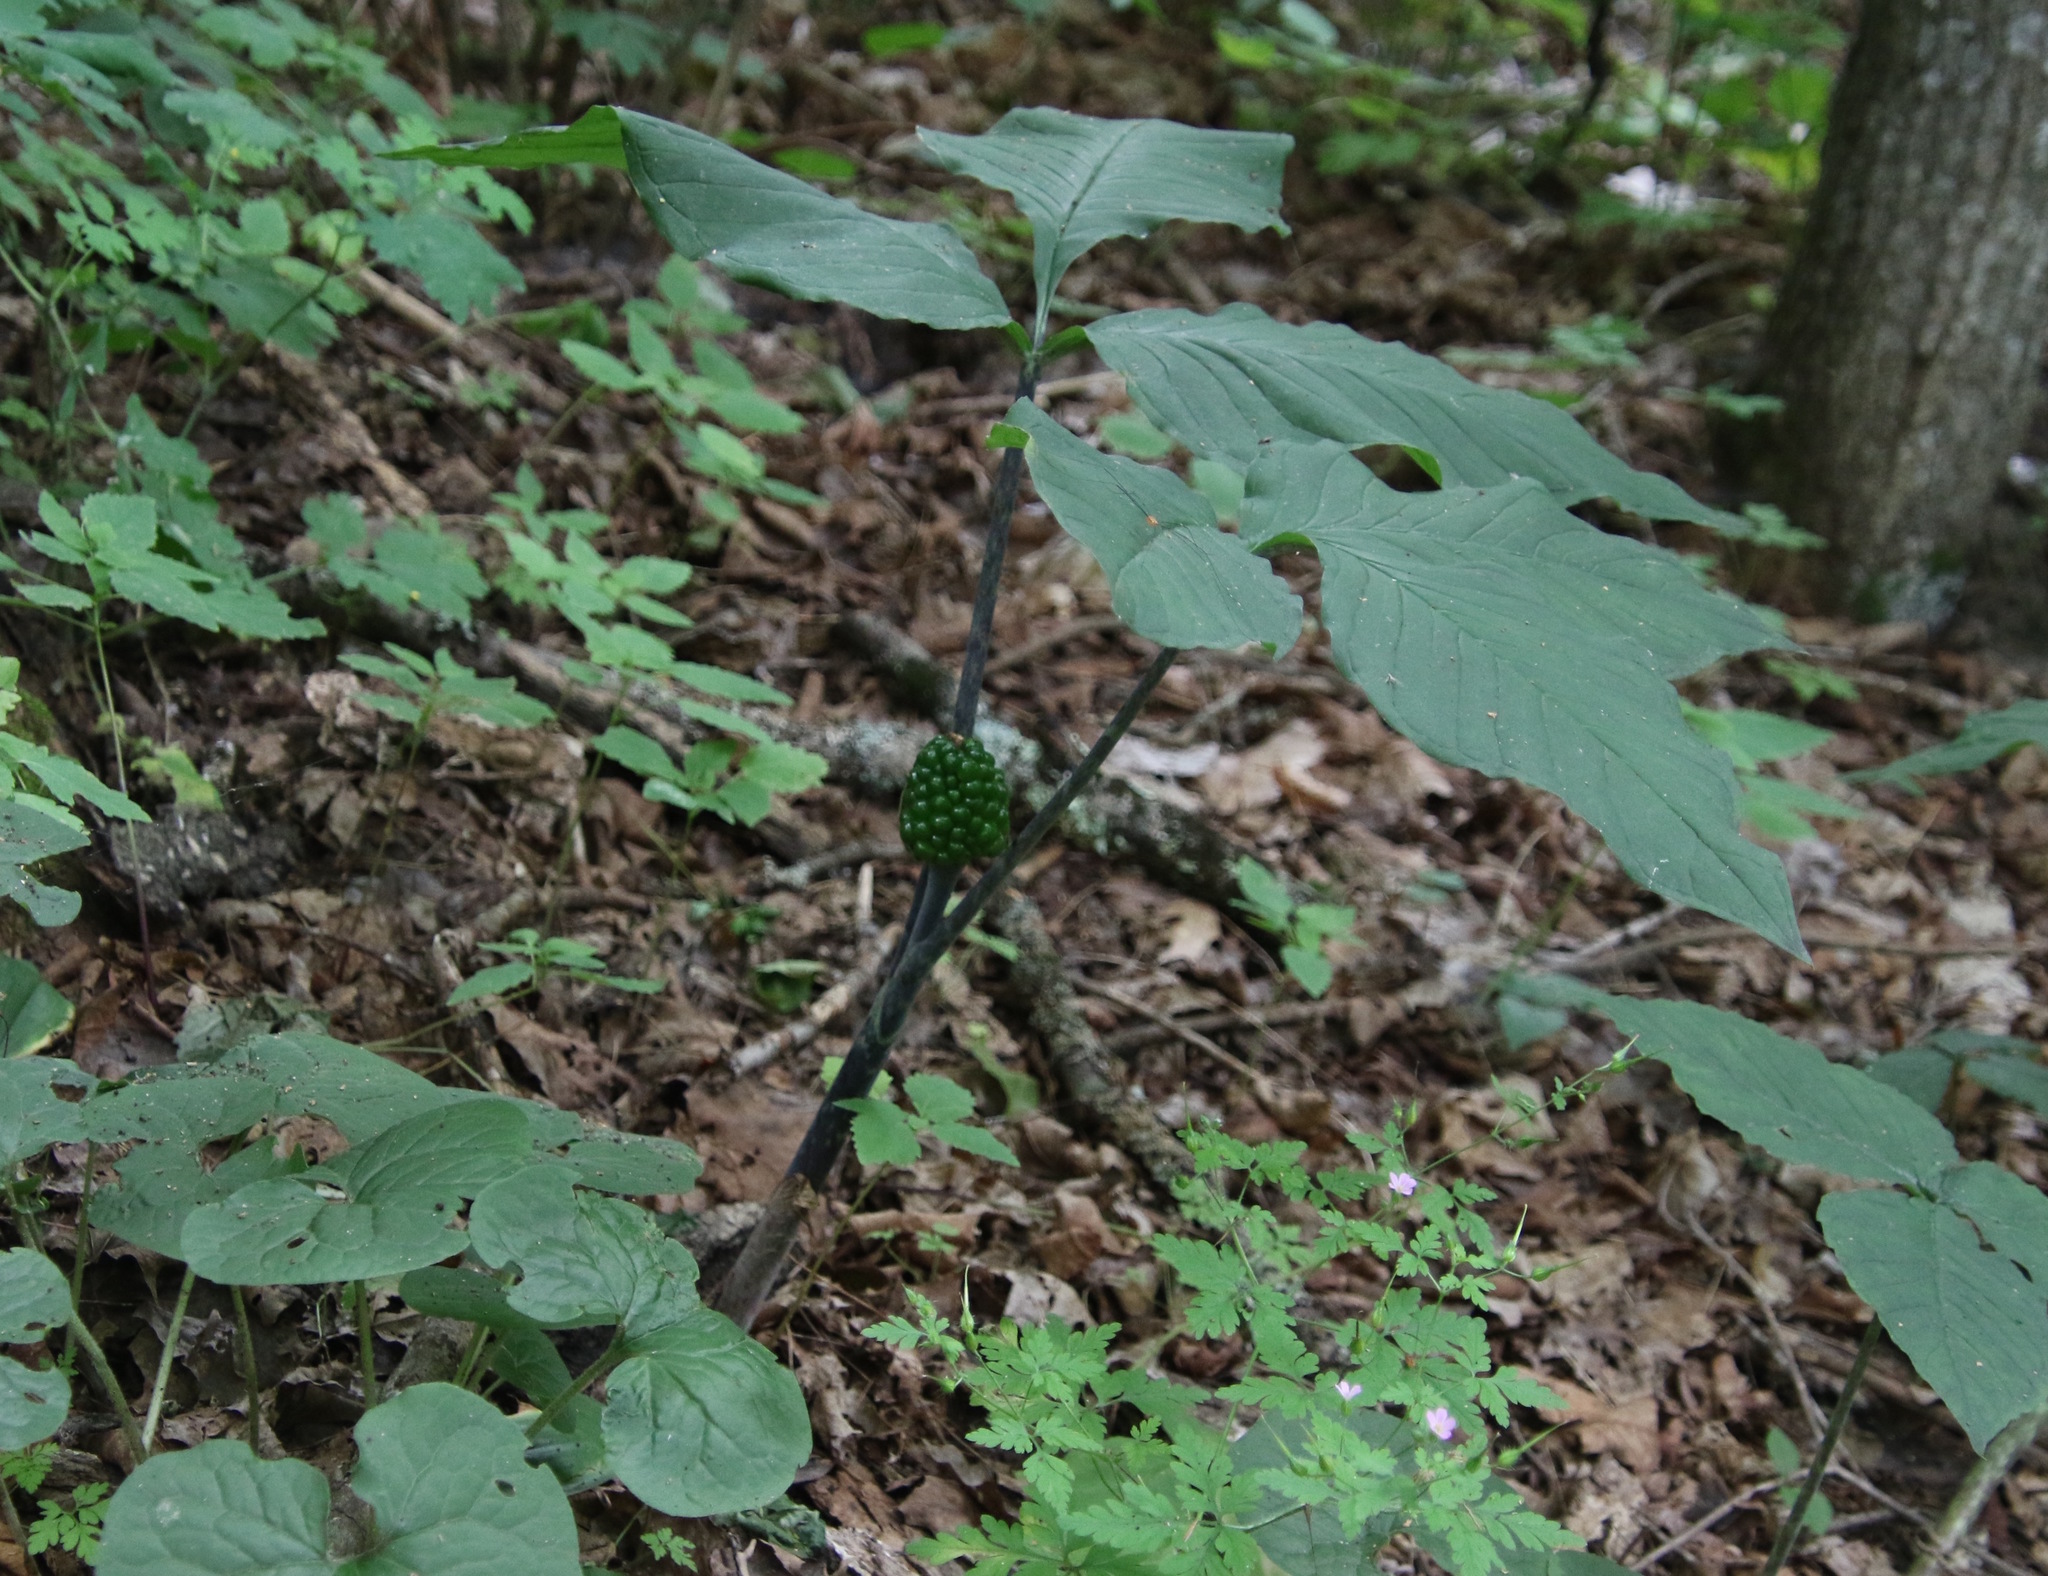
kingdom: Plantae
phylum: Tracheophyta
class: Liliopsida
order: Alismatales
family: Araceae
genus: Arisaema
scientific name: Arisaema triphyllum
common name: Jack-in-the-pulpit
